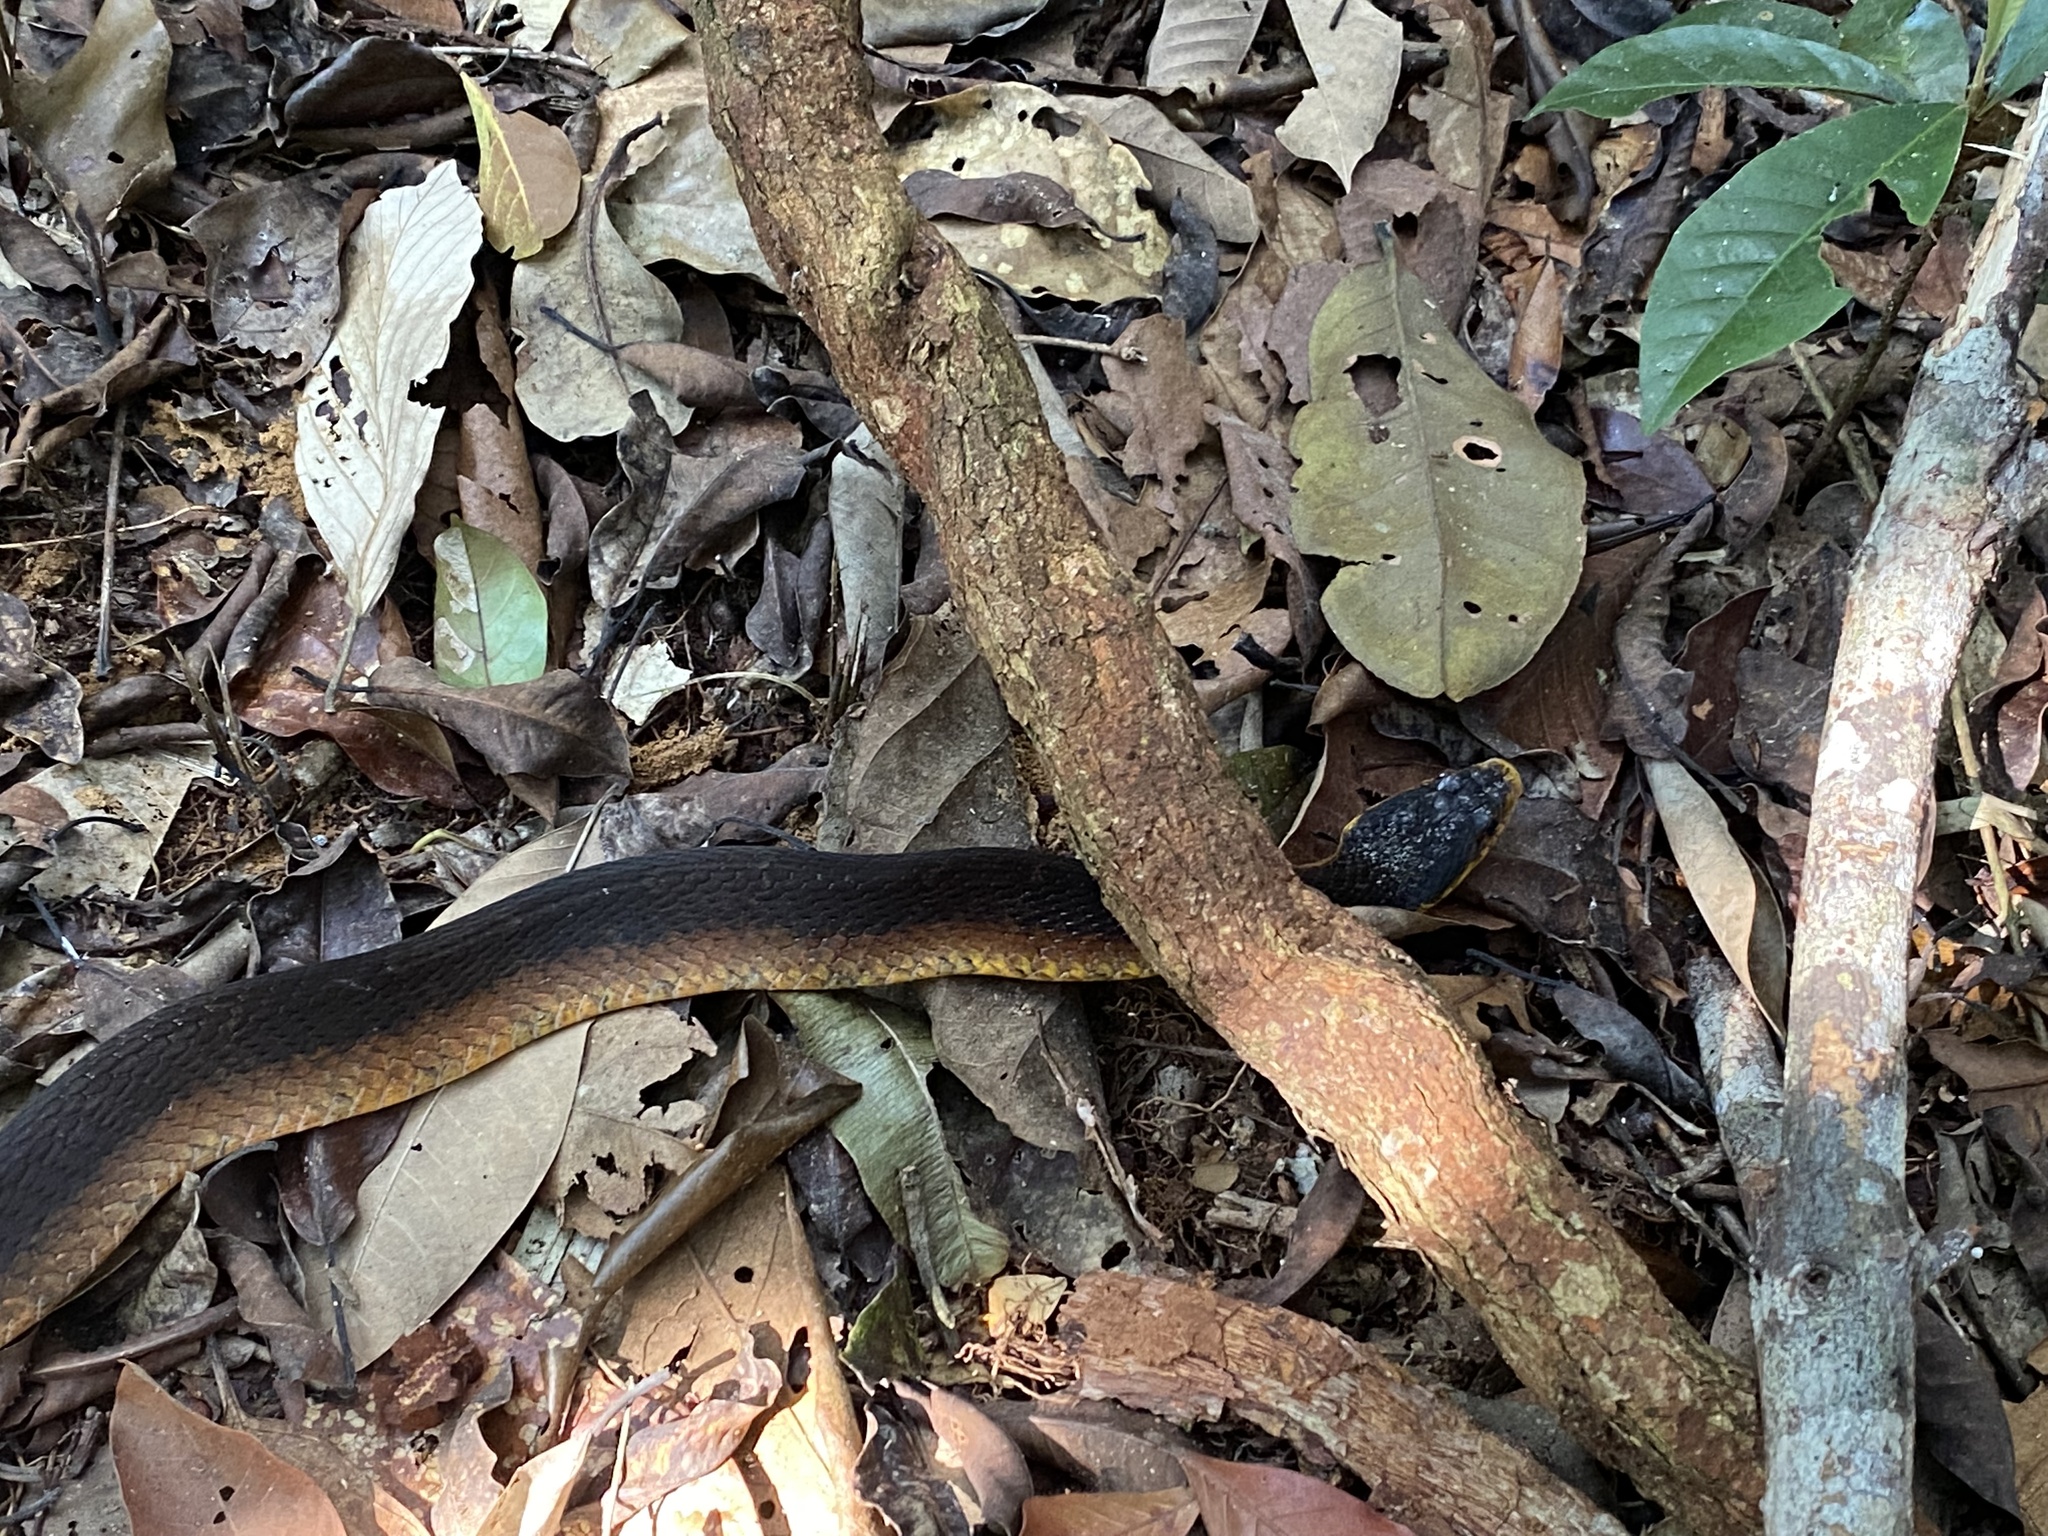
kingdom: Animalia
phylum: Chordata
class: Squamata
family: Colubridae
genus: Xenodon
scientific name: Xenodon severus
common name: Amazon false fer-de-lance
